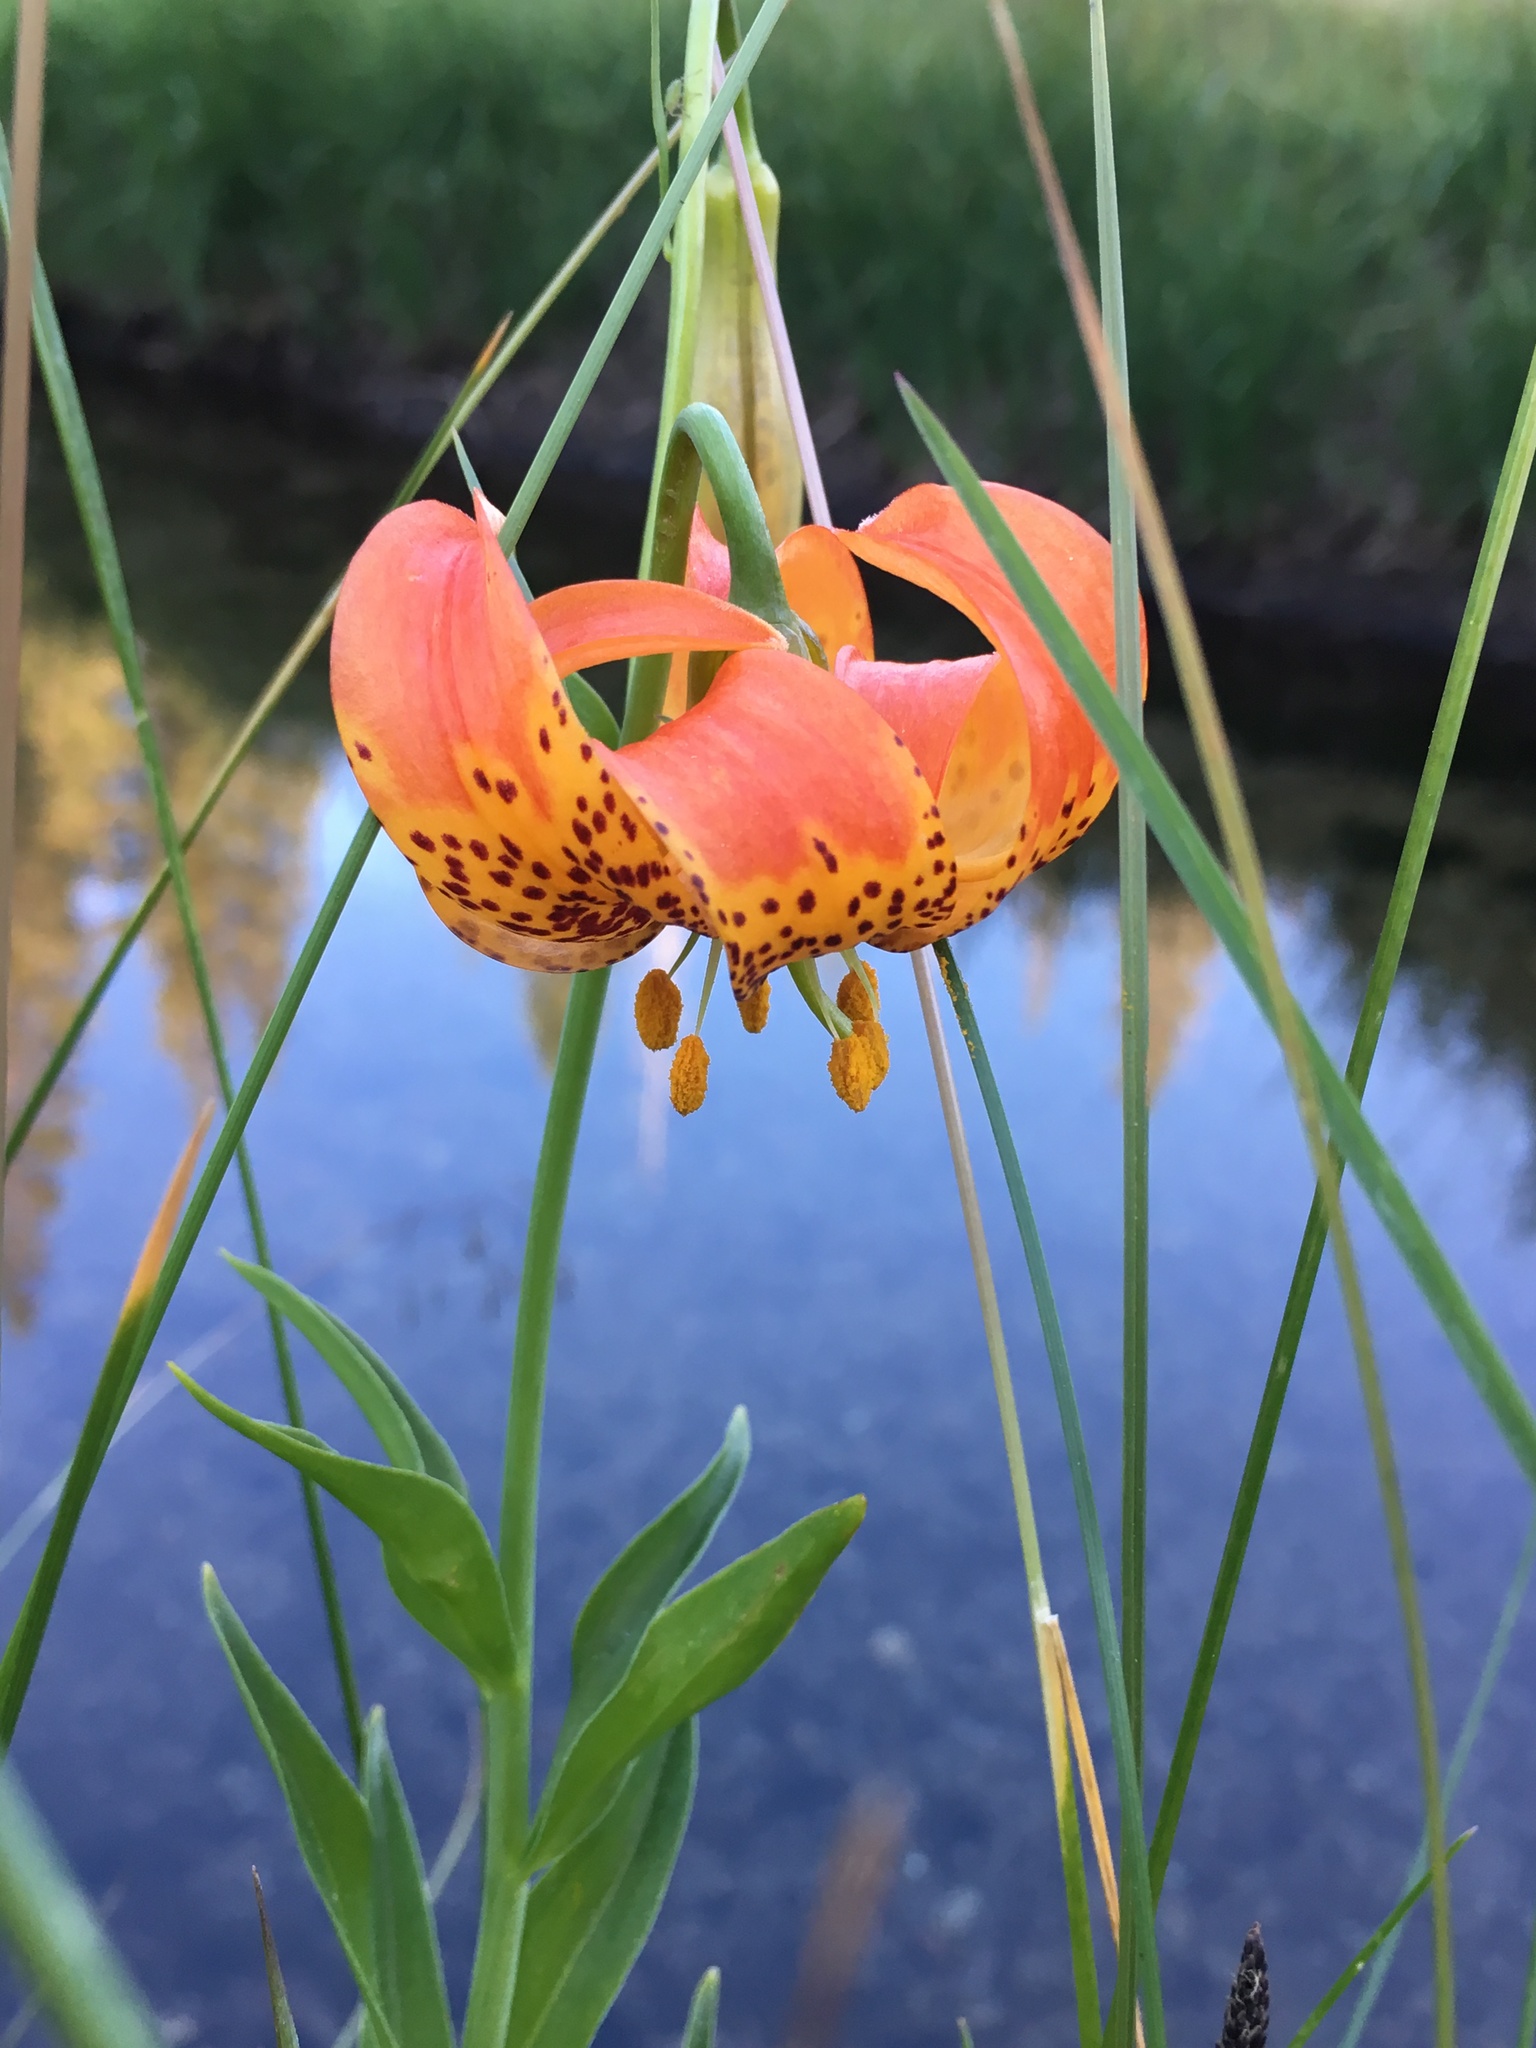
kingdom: Plantae
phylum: Tracheophyta
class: Liliopsida
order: Liliales
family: Liliaceae
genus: Lilium
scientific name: Lilium pardalinum
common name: Panther lily
